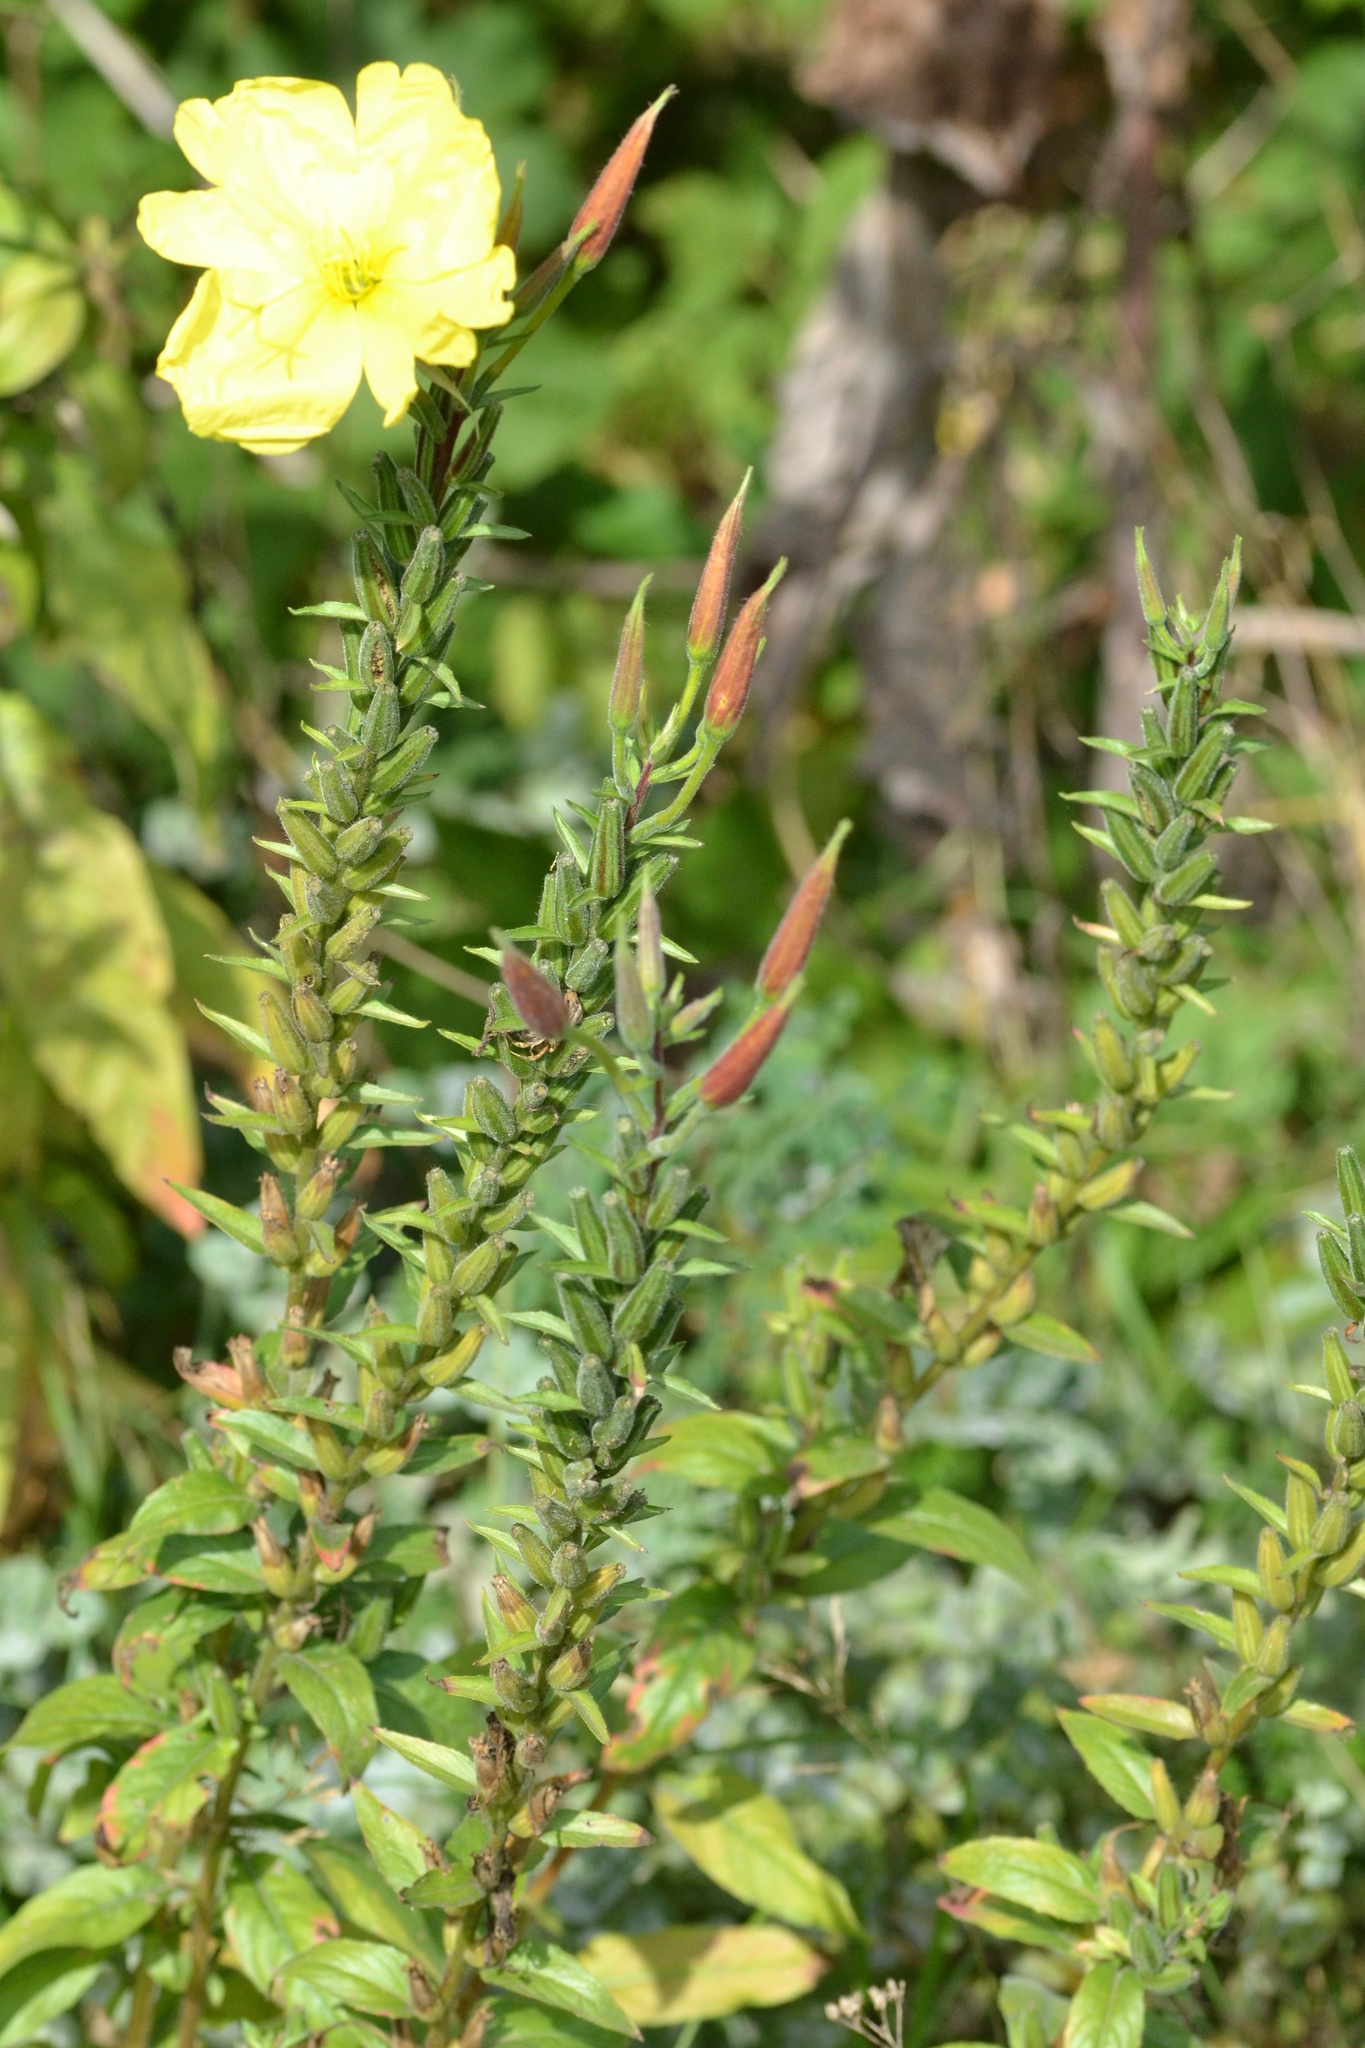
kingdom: Plantae
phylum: Tracheophyta
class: Magnoliopsida
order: Myrtales
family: Onagraceae
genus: Oenothera
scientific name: Oenothera glazioviana
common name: Large-flowered evening-primrose
